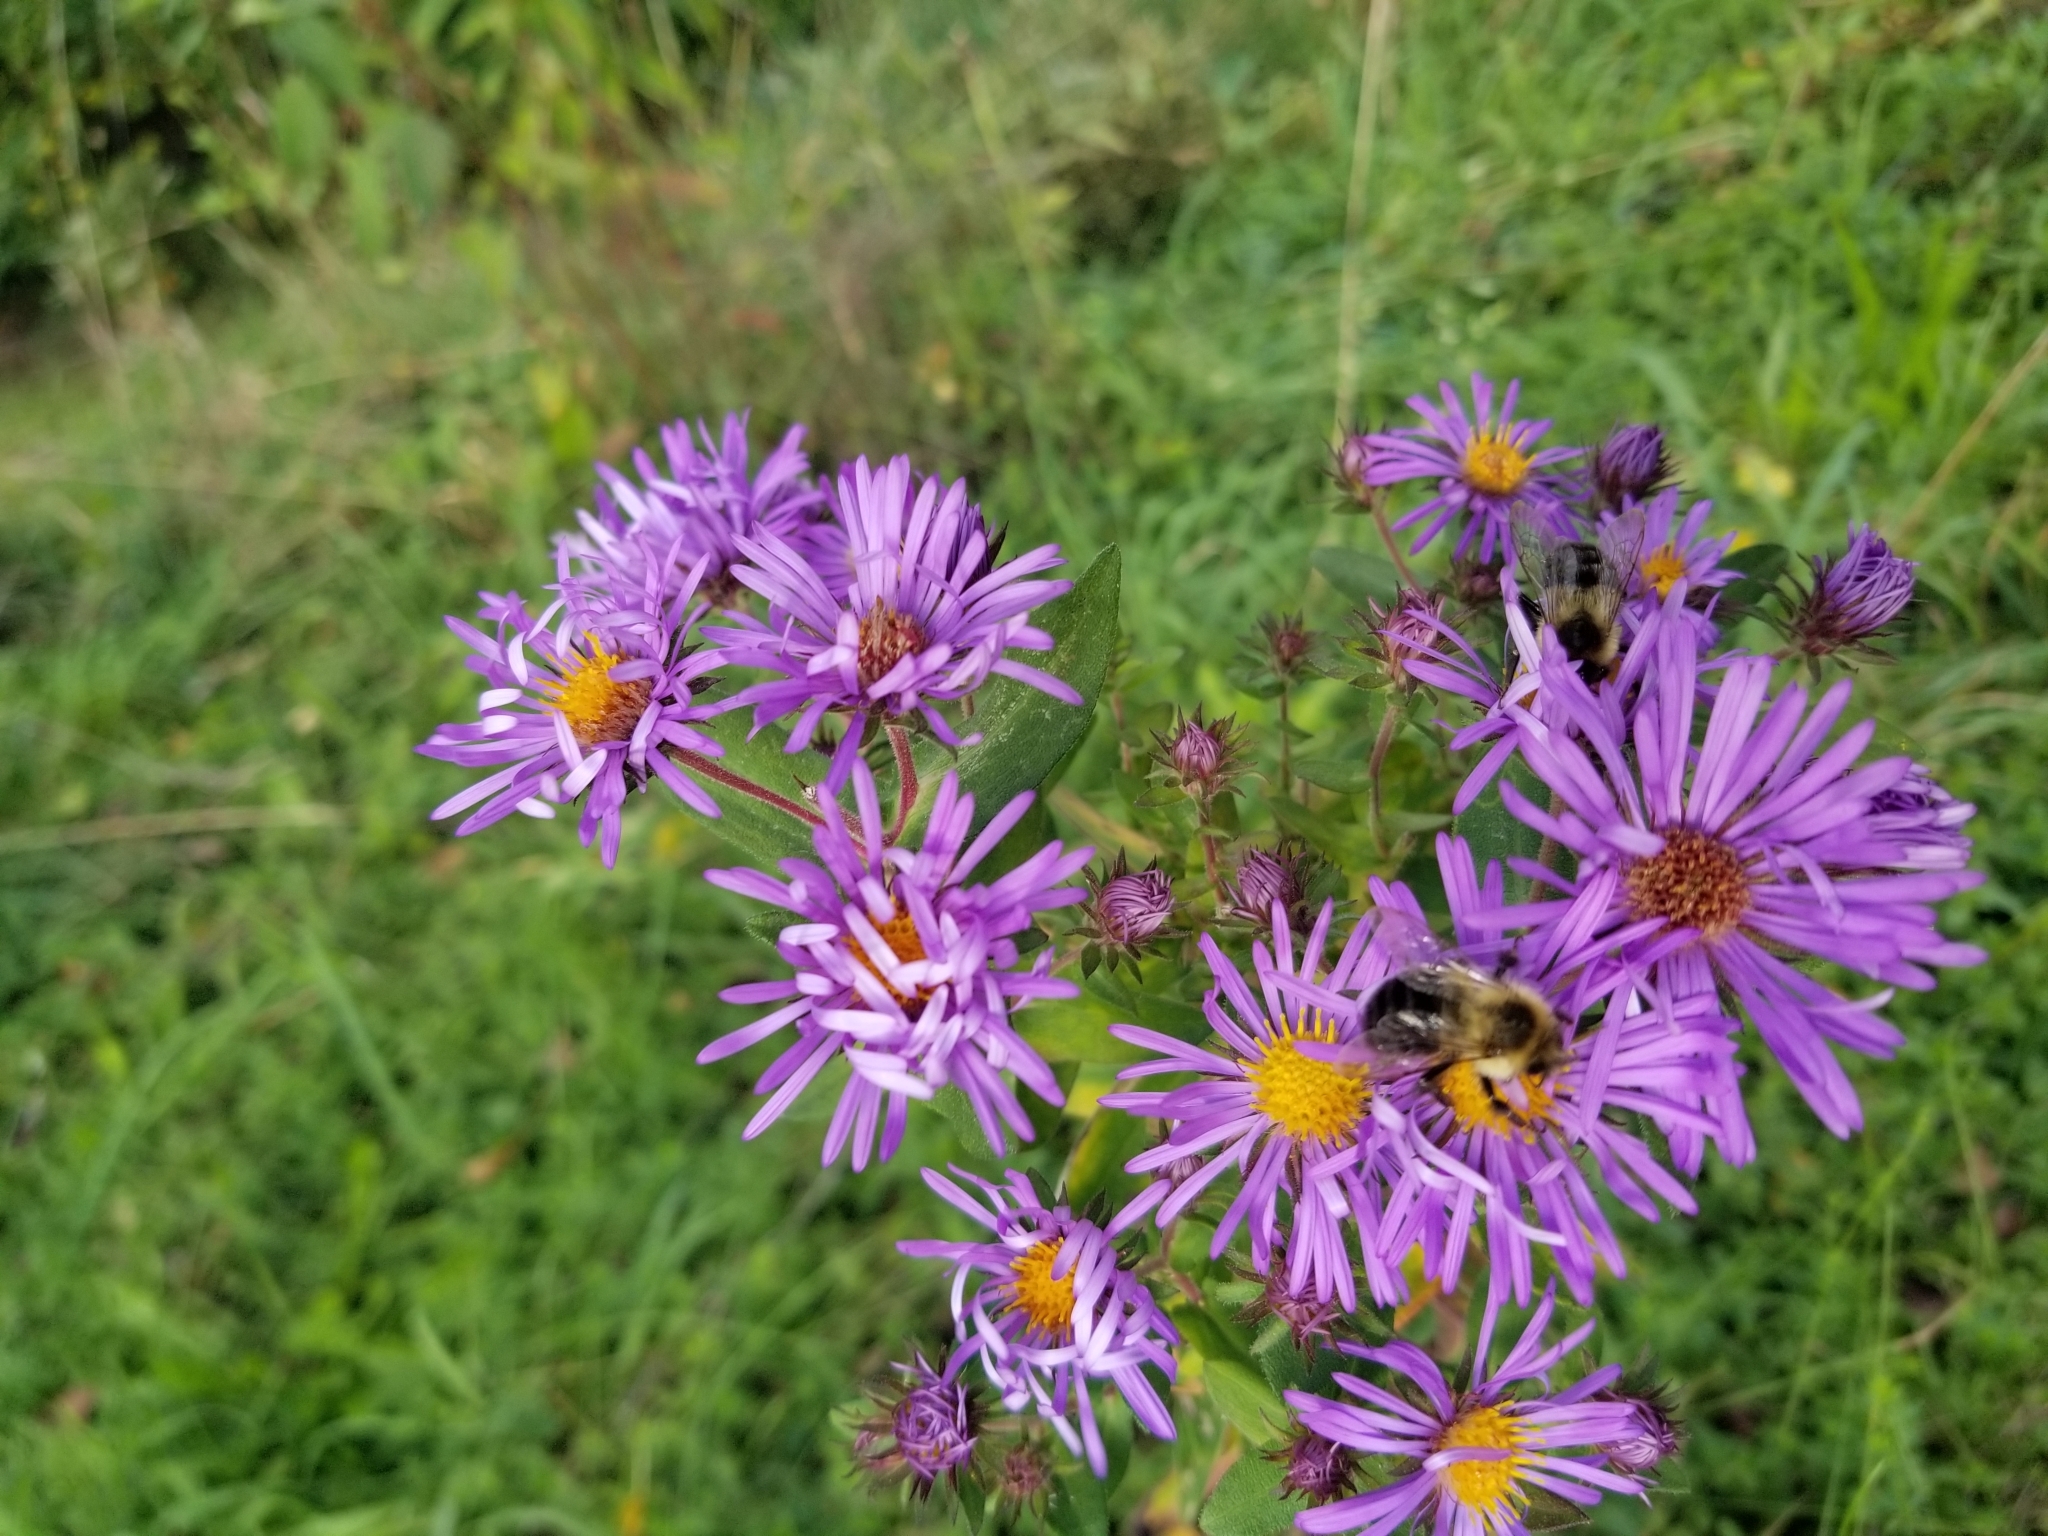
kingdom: Animalia
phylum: Arthropoda
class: Insecta
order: Hymenoptera
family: Apidae
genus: Bombus
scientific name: Bombus impatiens
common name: Common eastern bumble bee
